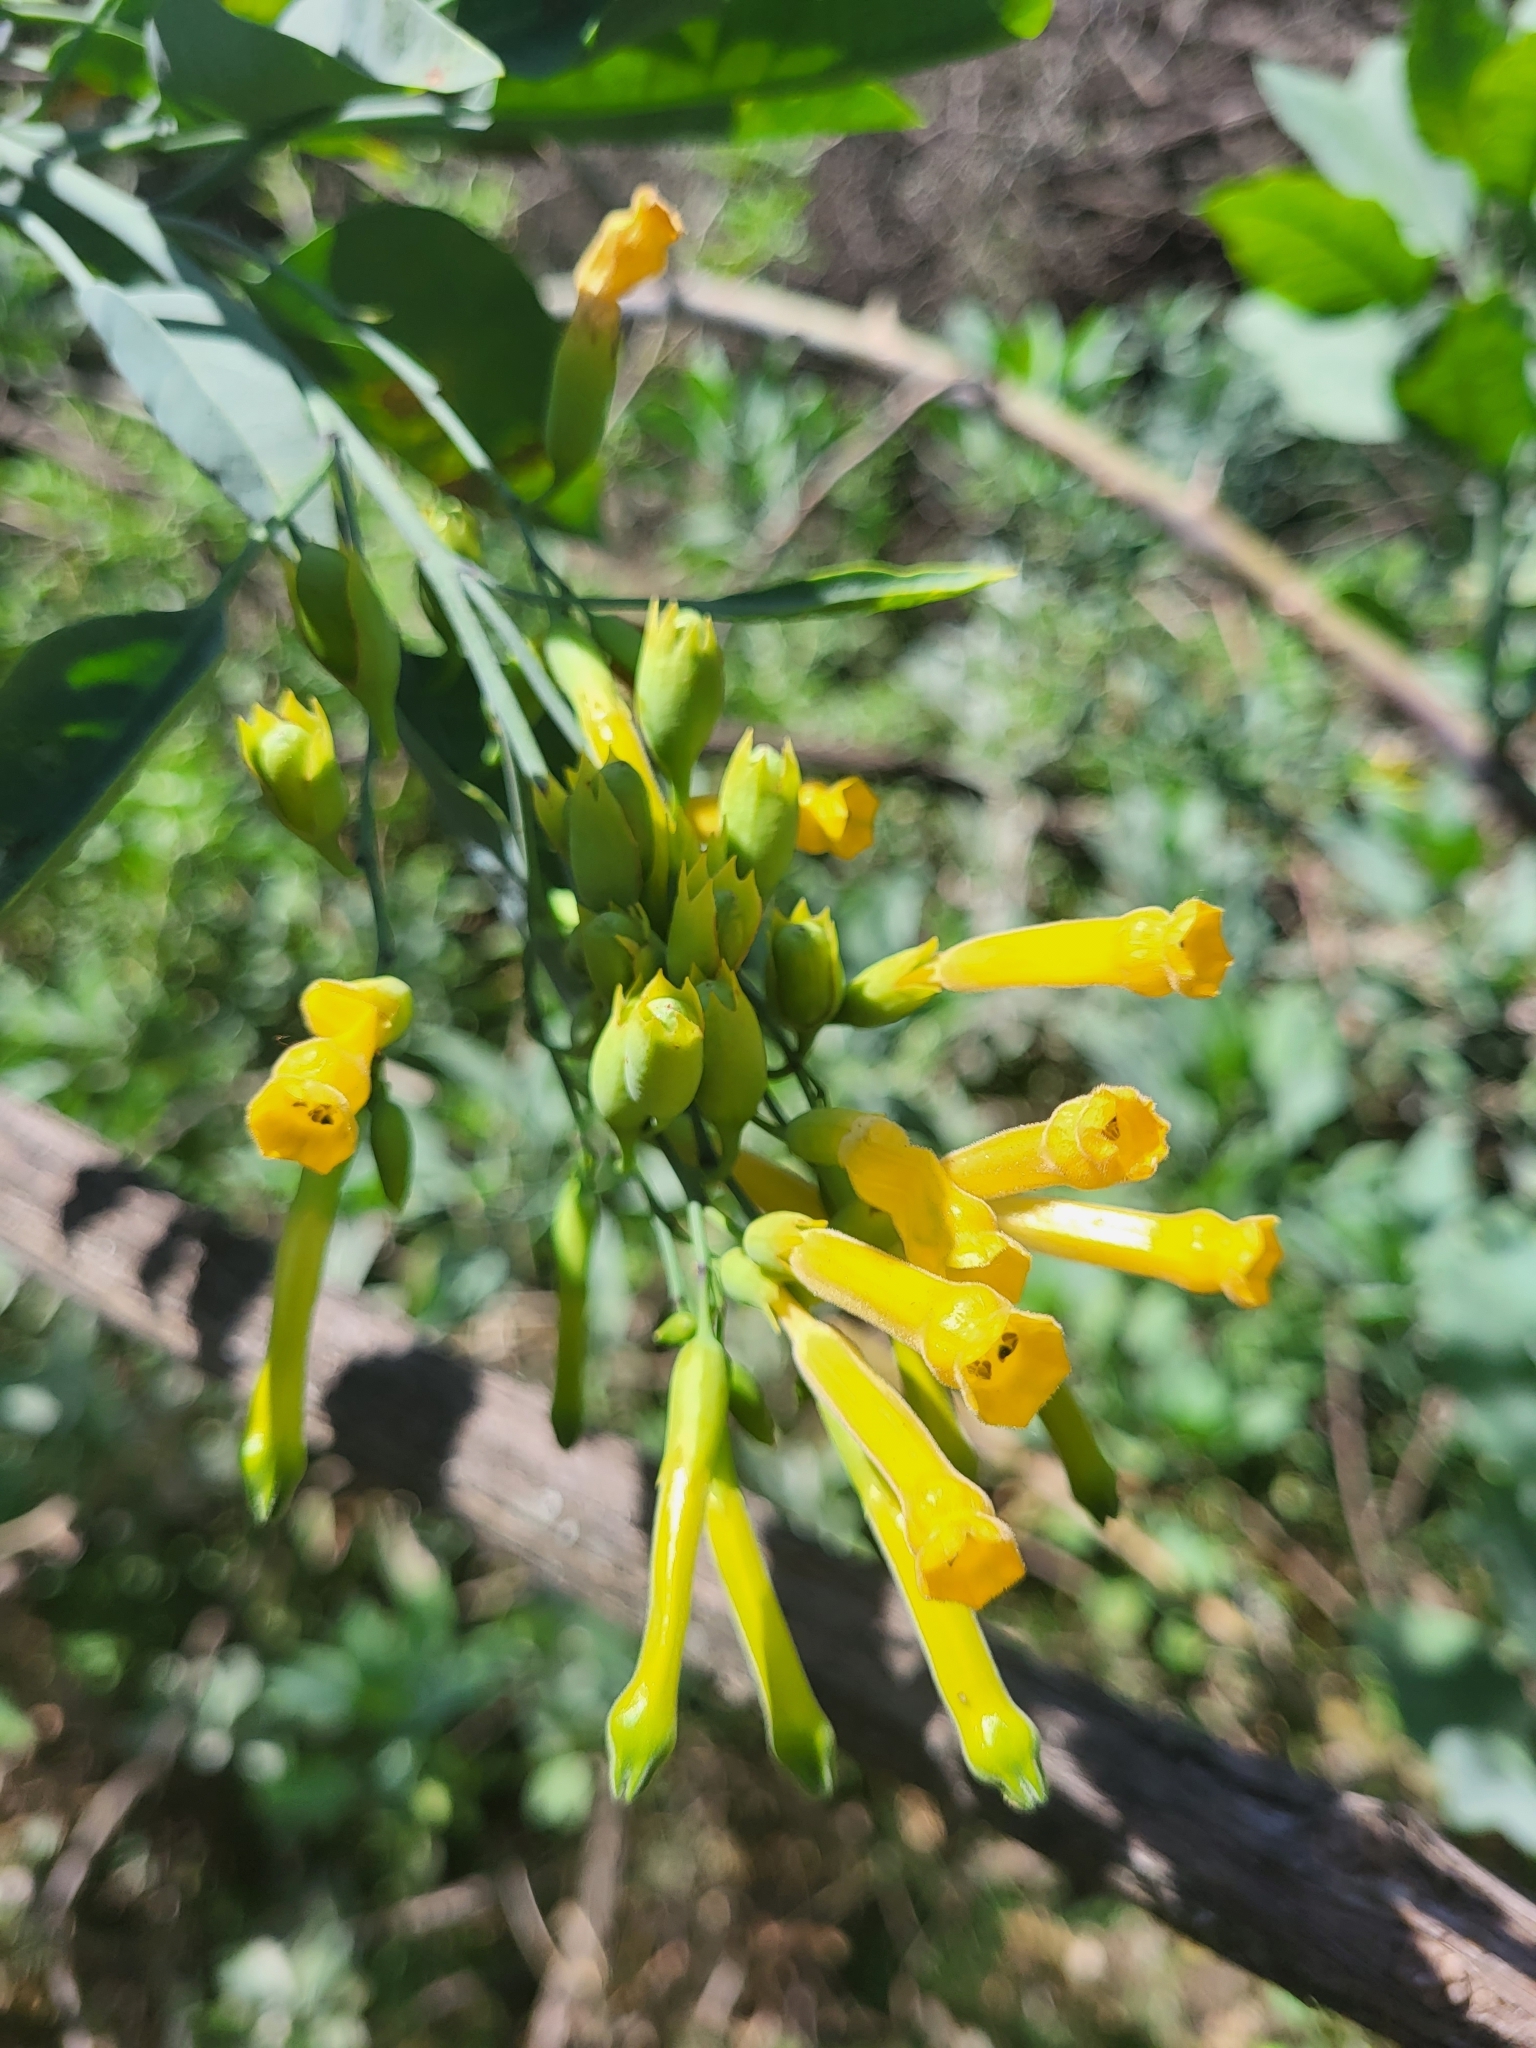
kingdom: Plantae
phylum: Tracheophyta
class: Magnoliopsida
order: Solanales
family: Solanaceae
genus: Nicotiana
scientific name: Nicotiana glauca
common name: Tree tobacco
